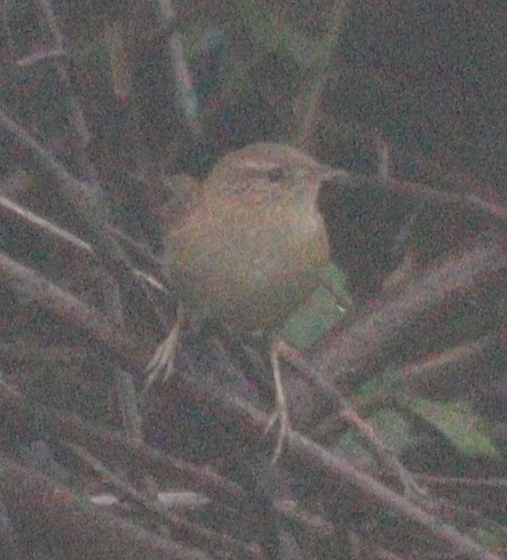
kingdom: Animalia
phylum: Chordata
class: Aves
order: Passeriformes
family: Troglodytidae
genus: Troglodytes
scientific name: Troglodytes troglodytes
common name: Eurasian wren
